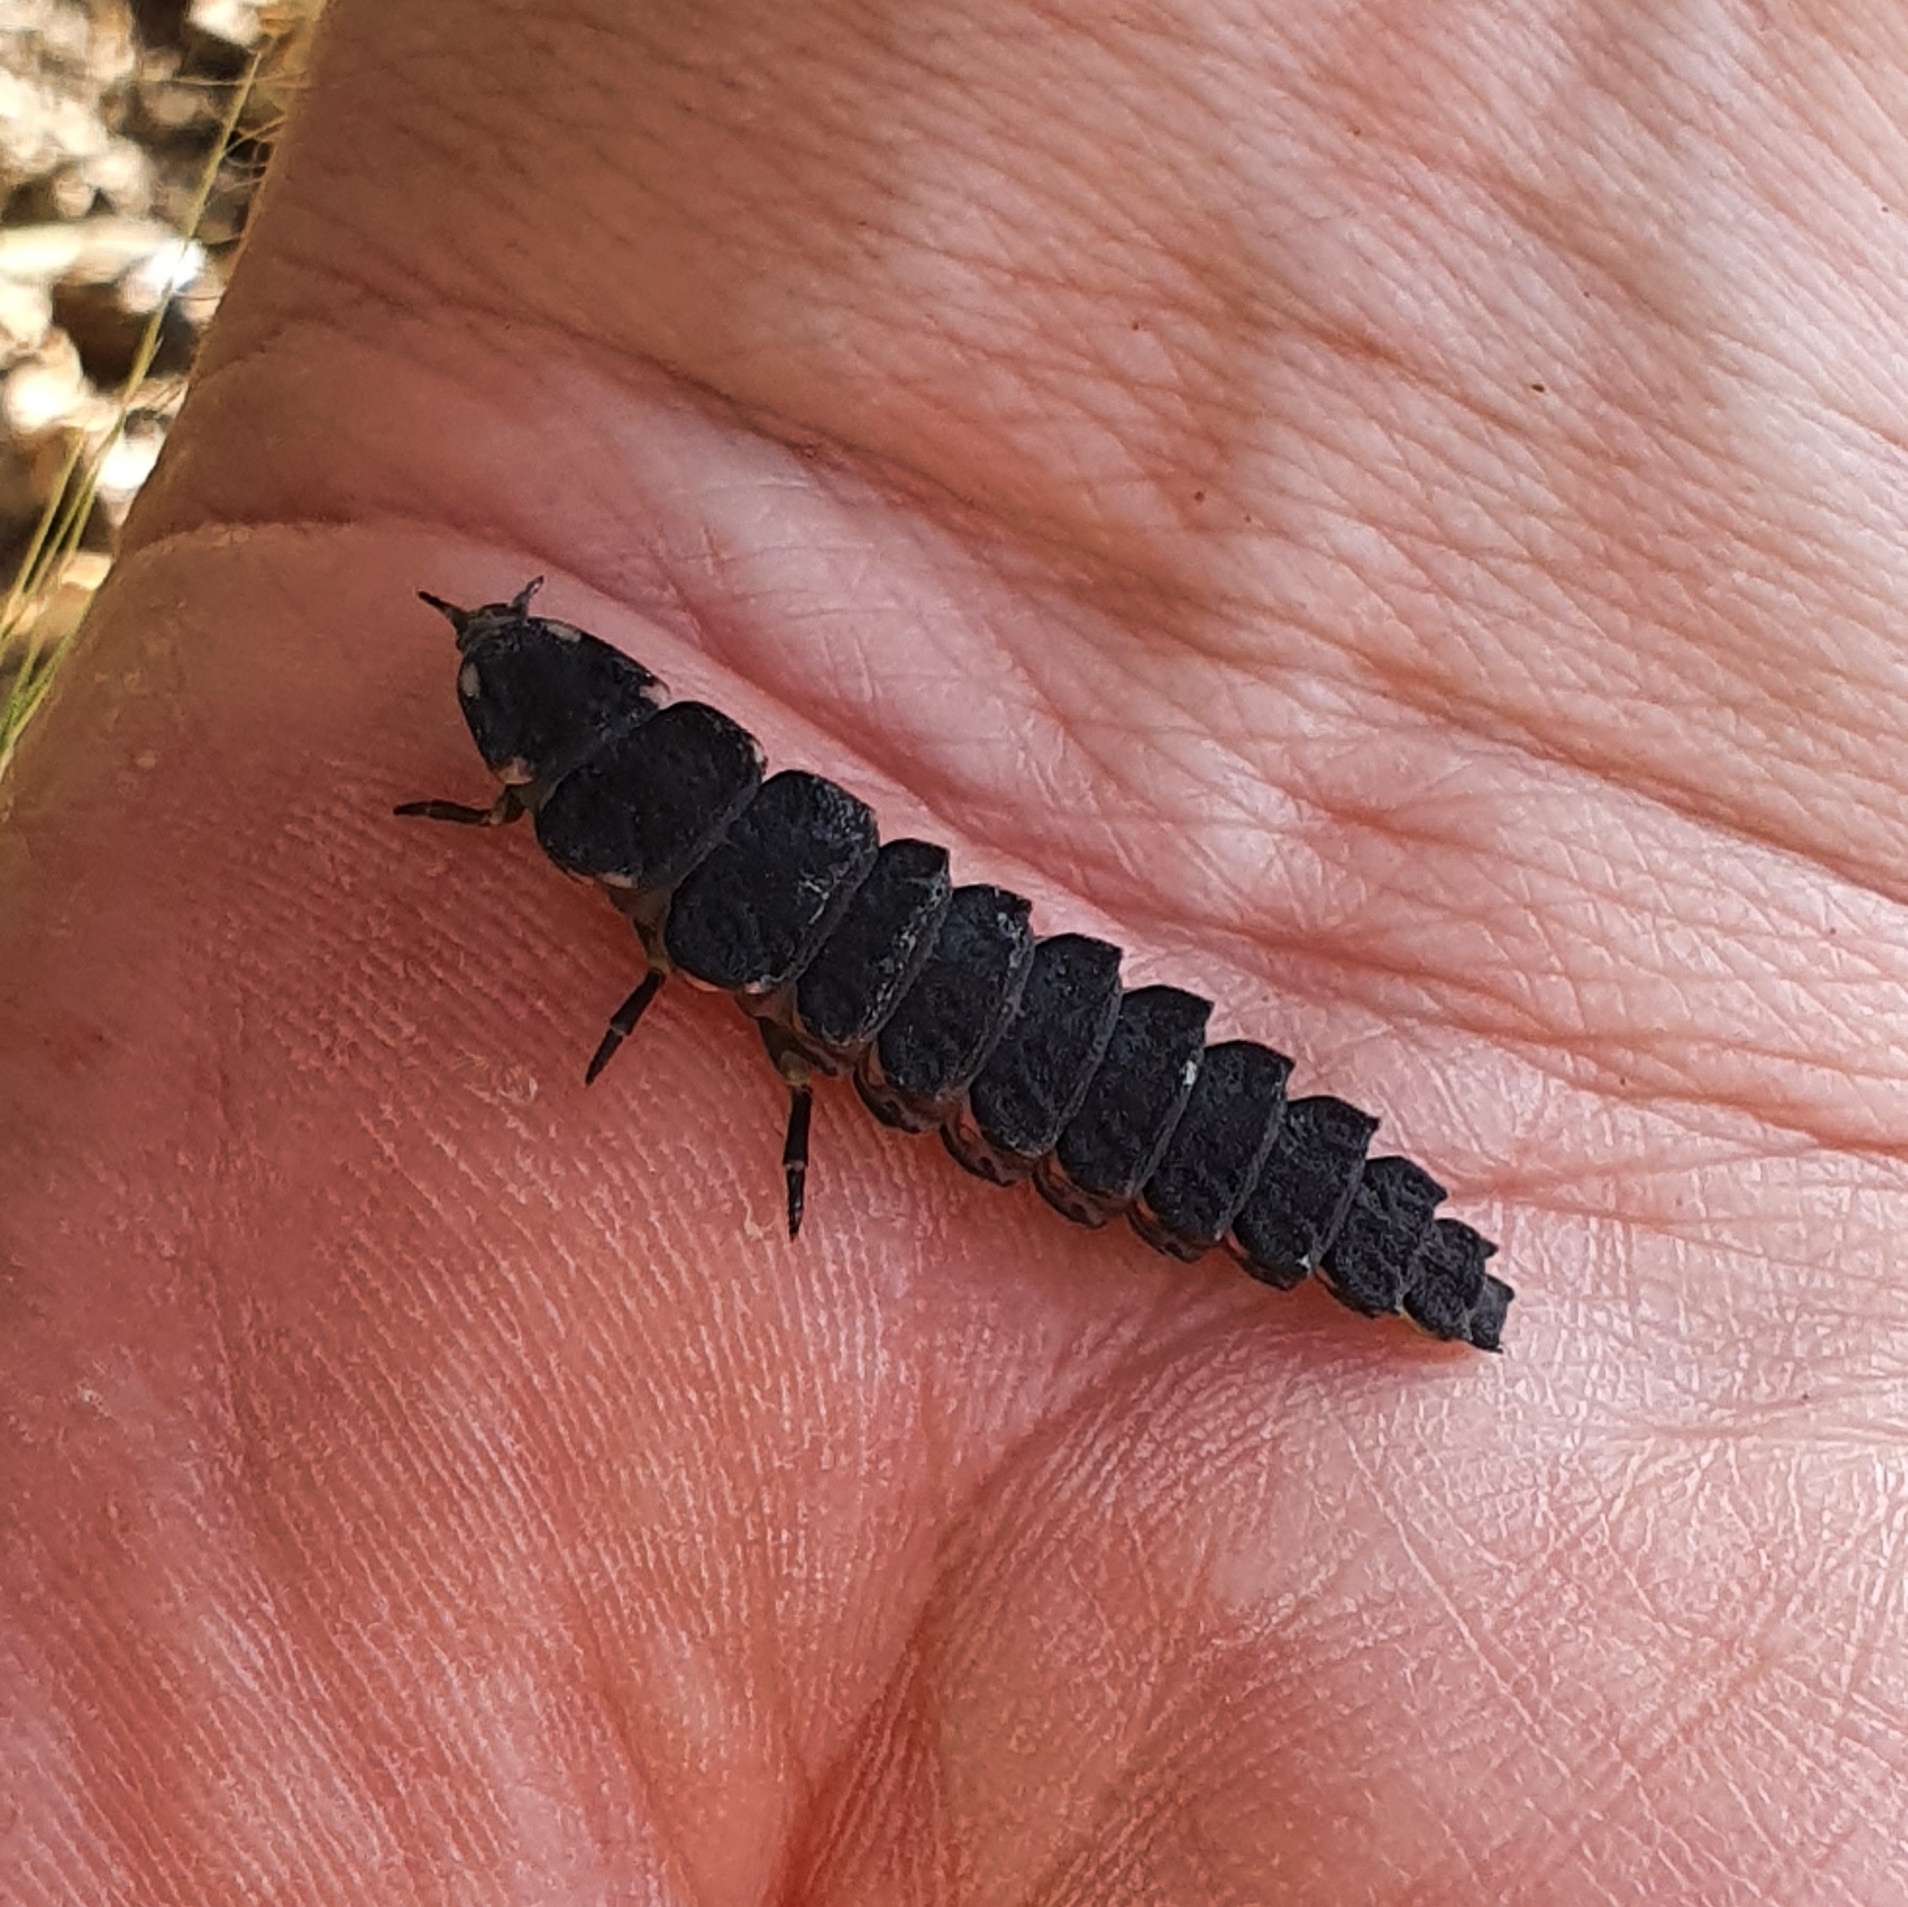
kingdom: Animalia
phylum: Arthropoda
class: Insecta
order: Coleoptera
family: Lampyridae
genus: Pelania
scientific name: Pelania mauritanica
